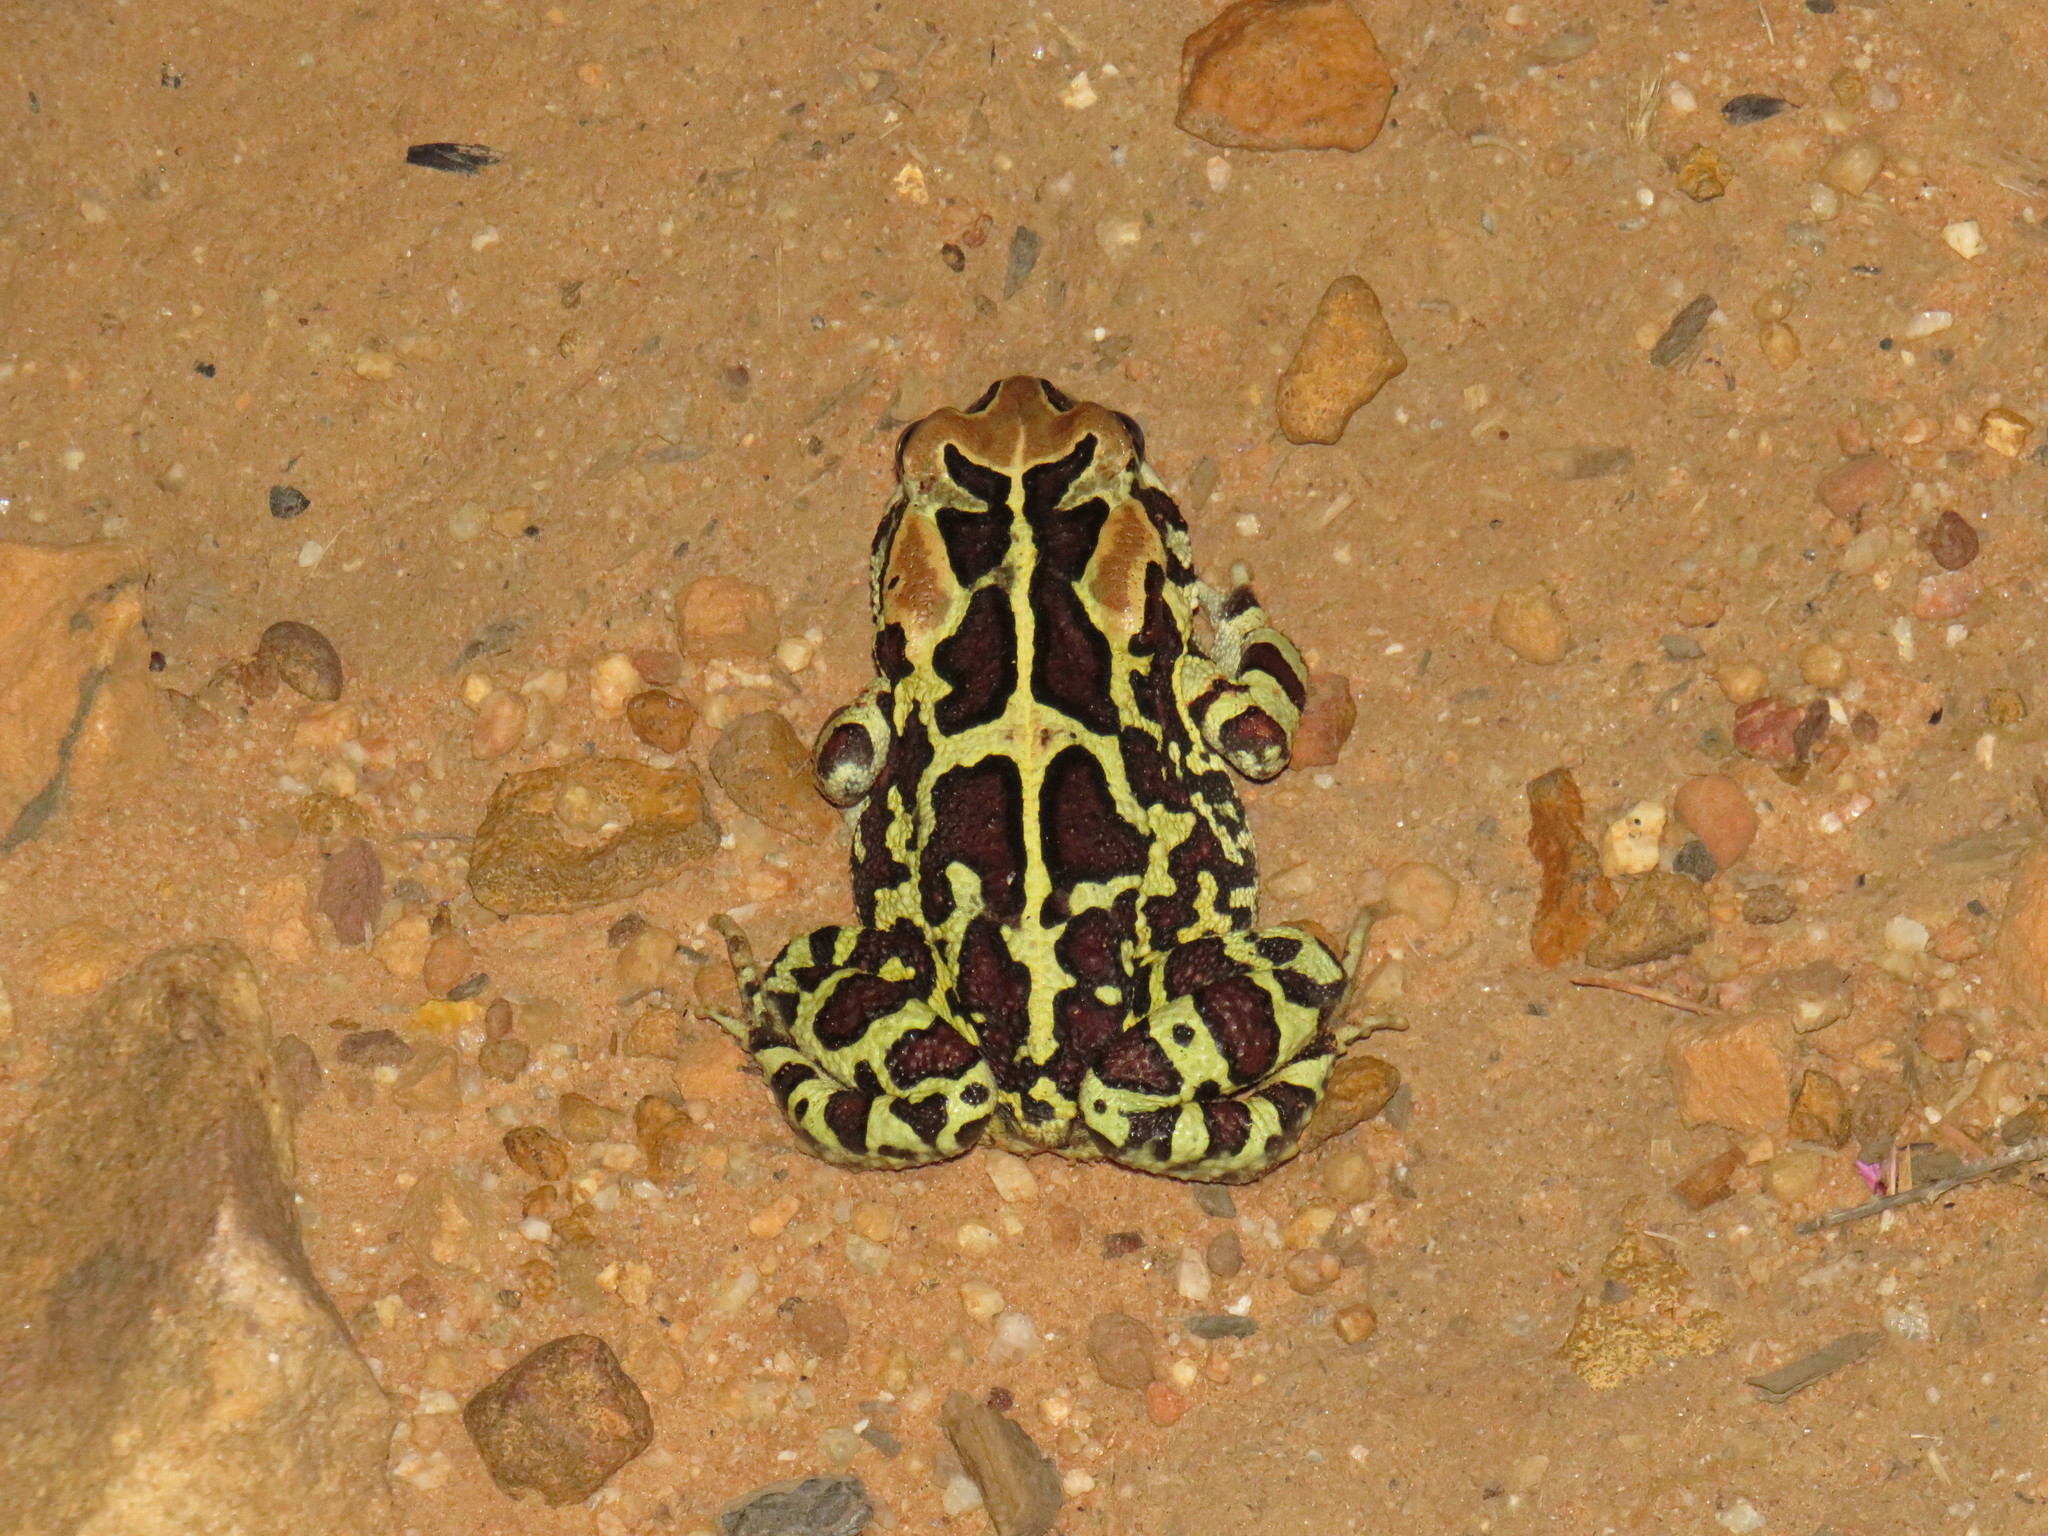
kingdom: Animalia
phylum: Chordata
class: Amphibia
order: Anura
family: Bufonidae
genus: Sclerophrys
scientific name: Sclerophrys pantherina
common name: Panther toad
